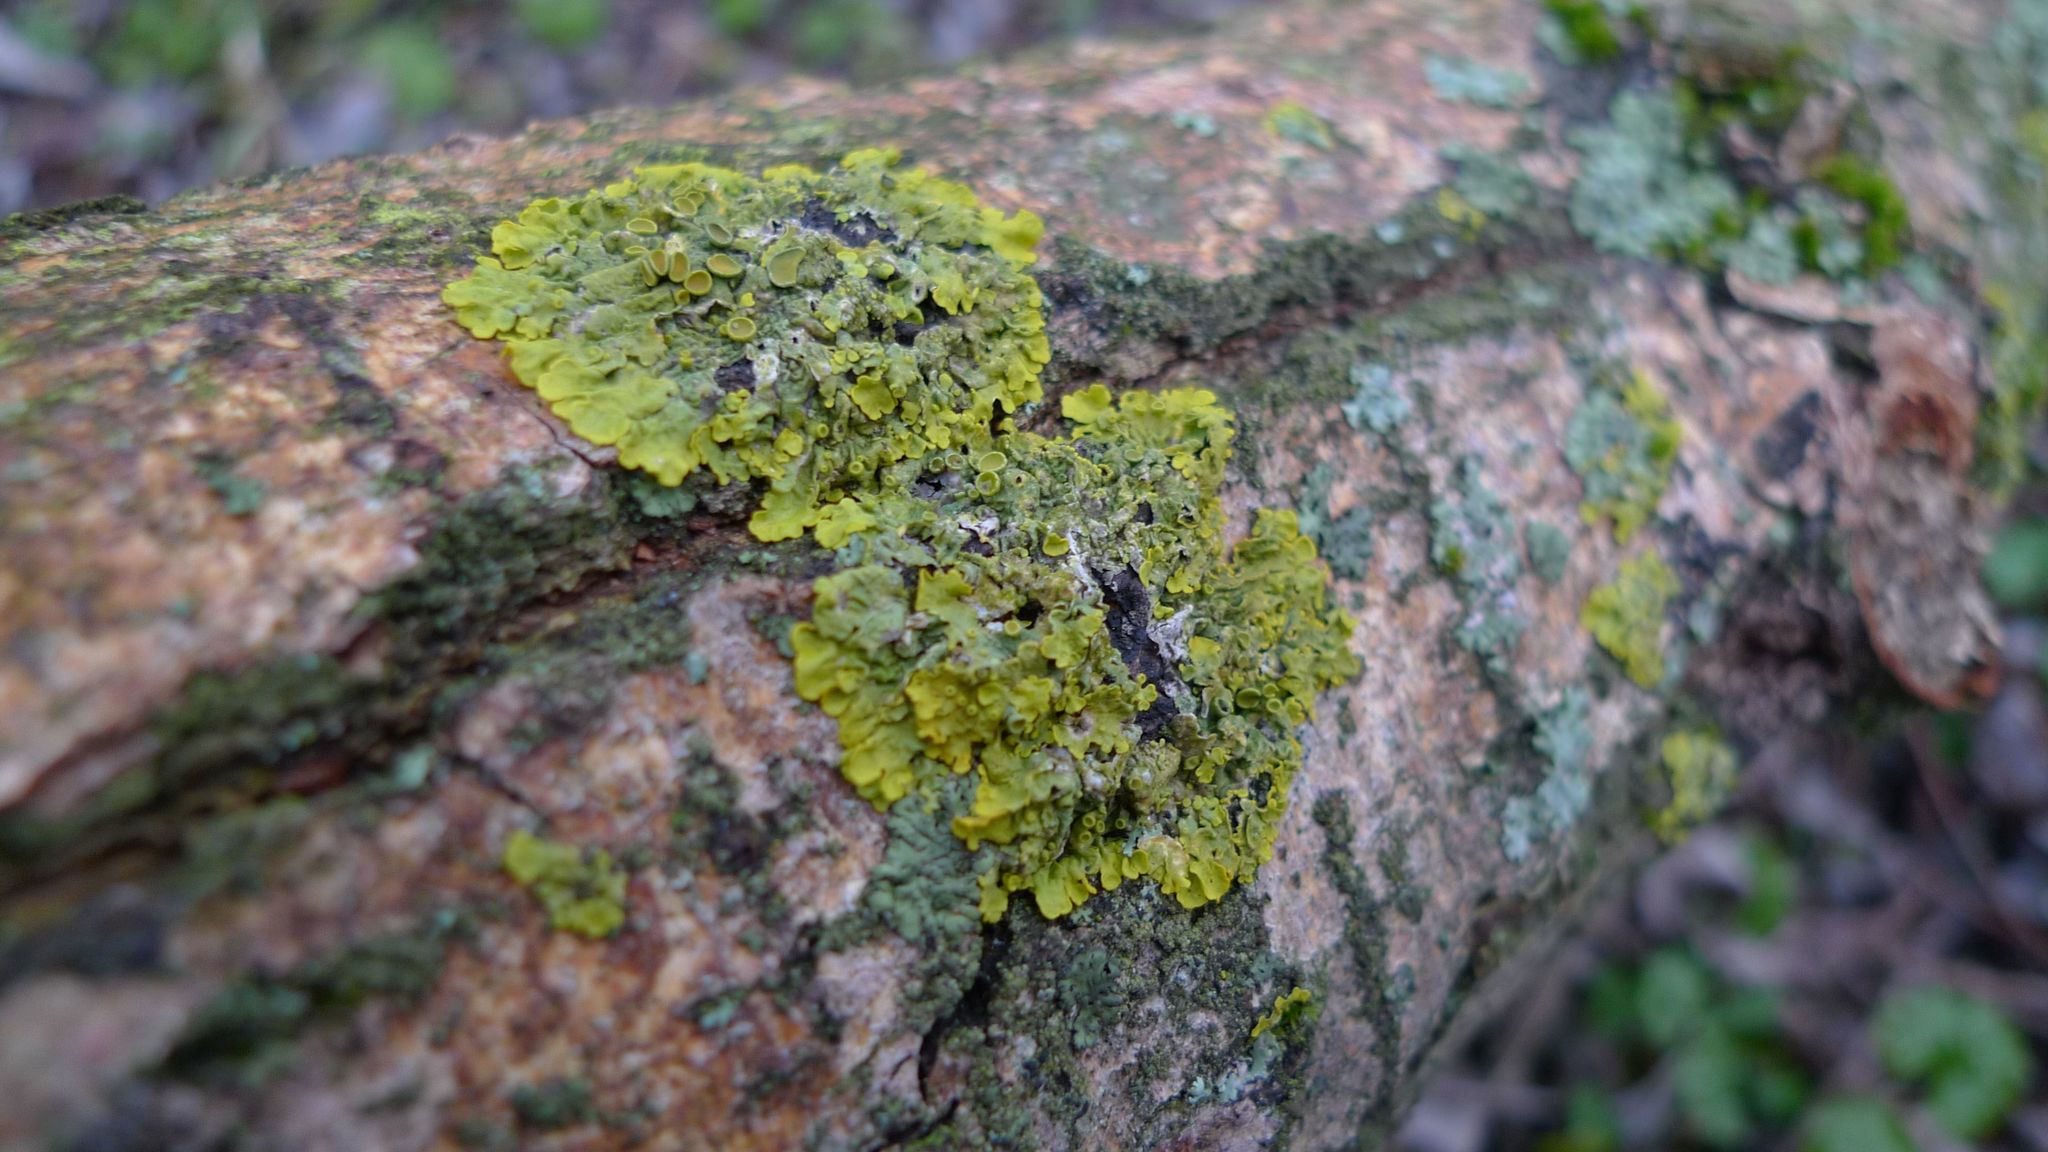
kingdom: Fungi
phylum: Ascomycota
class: Lecanoromycetes
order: Teloschistales
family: Teloschistaceae
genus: Xanthoria
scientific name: Xanthoria parietina
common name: Common orange lichen
